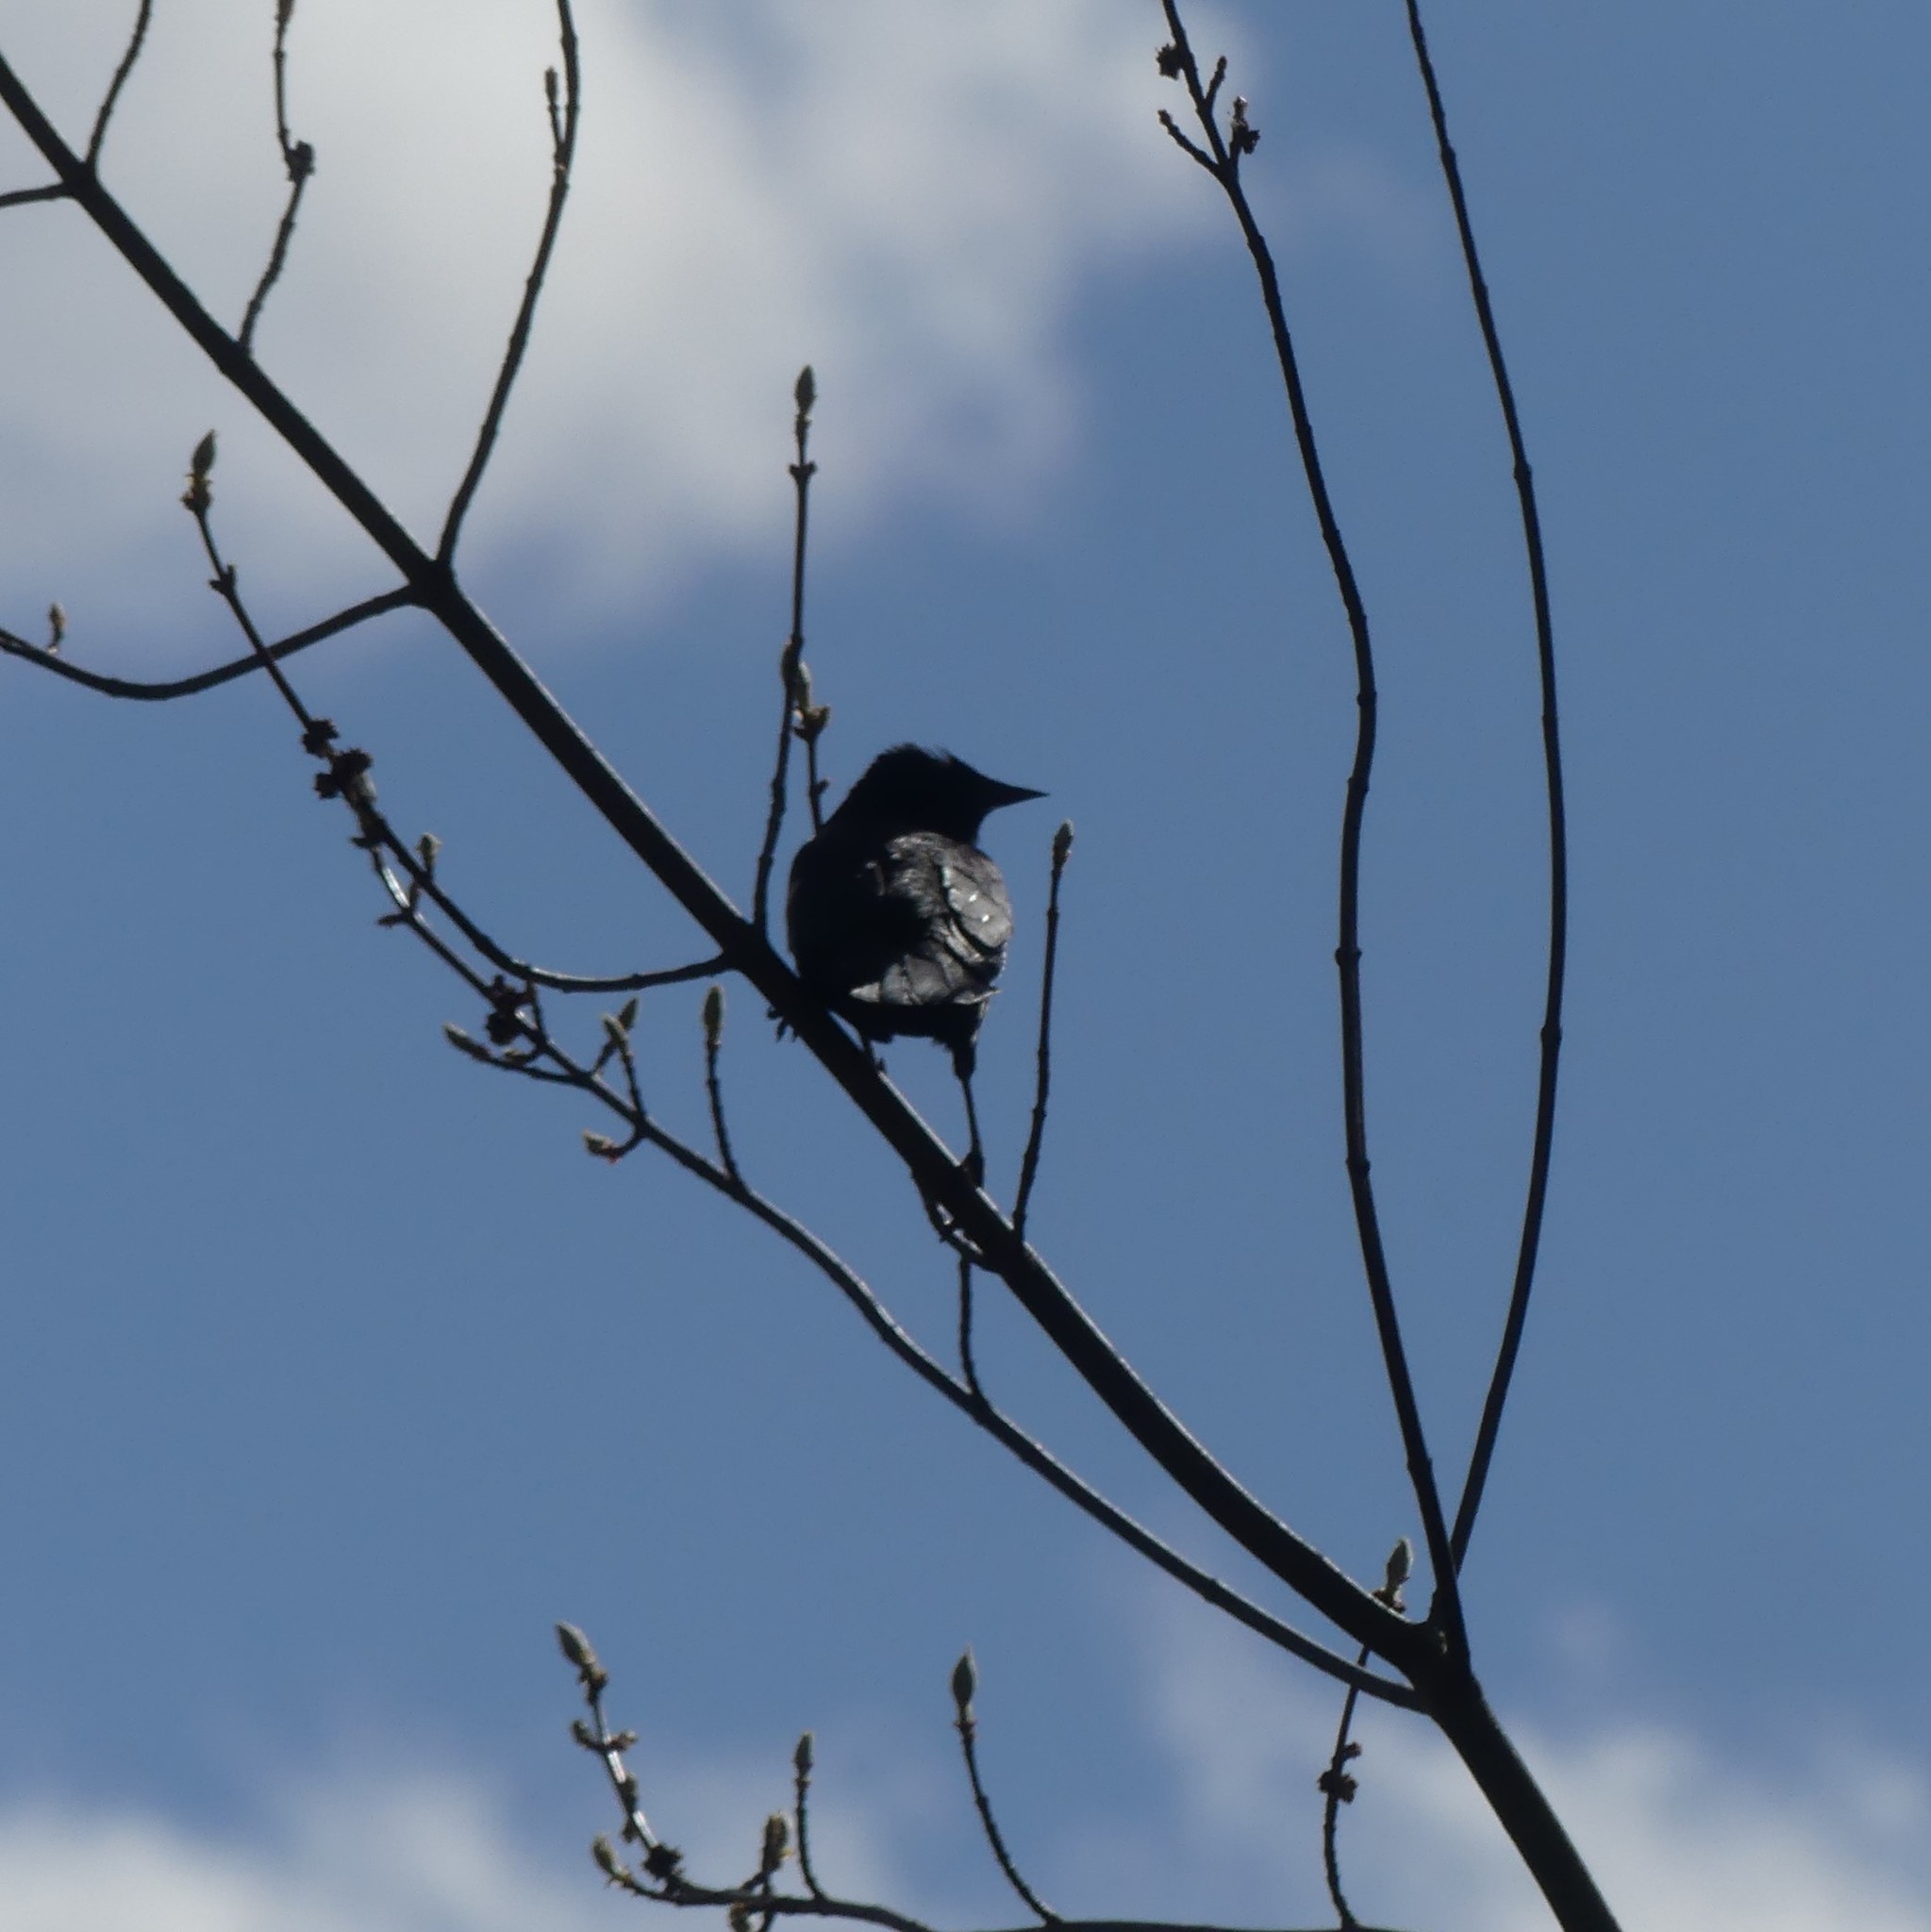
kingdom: Animalia
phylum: Chordata
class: Aves
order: Passeriformes
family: Icteridae
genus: Agelaius
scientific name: Agelaius phoeniceus
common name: Red-winged blackbird
